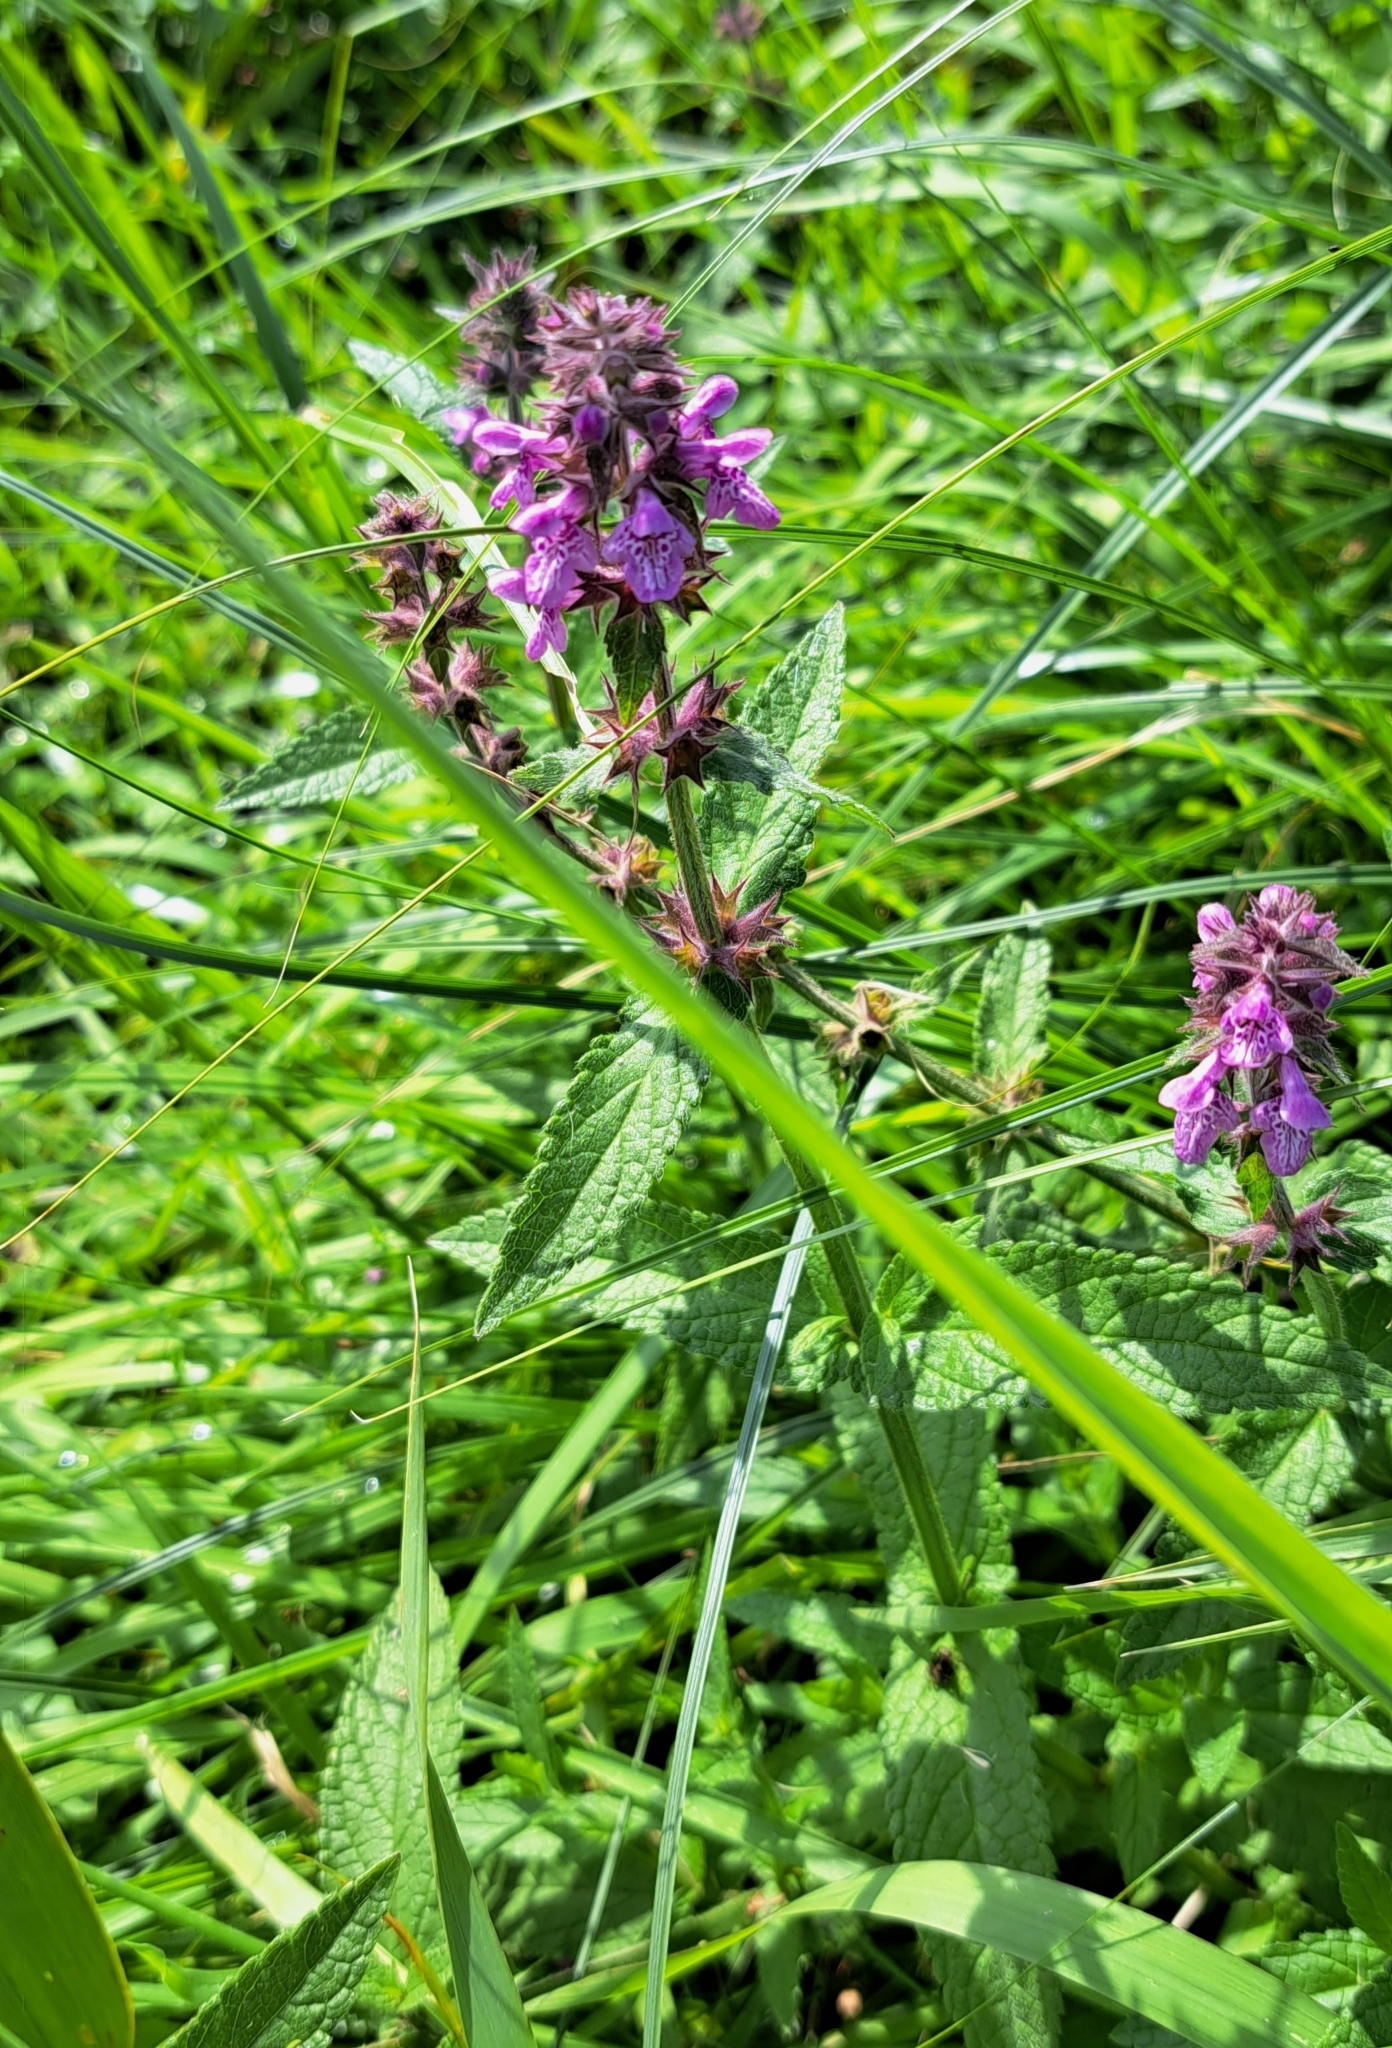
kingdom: Plantae
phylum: Tracheophyta
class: Magnoliopsida
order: Lamiales
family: Lamiaceae
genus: Stachys
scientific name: Stachys palustris
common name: Marsh woundwort
